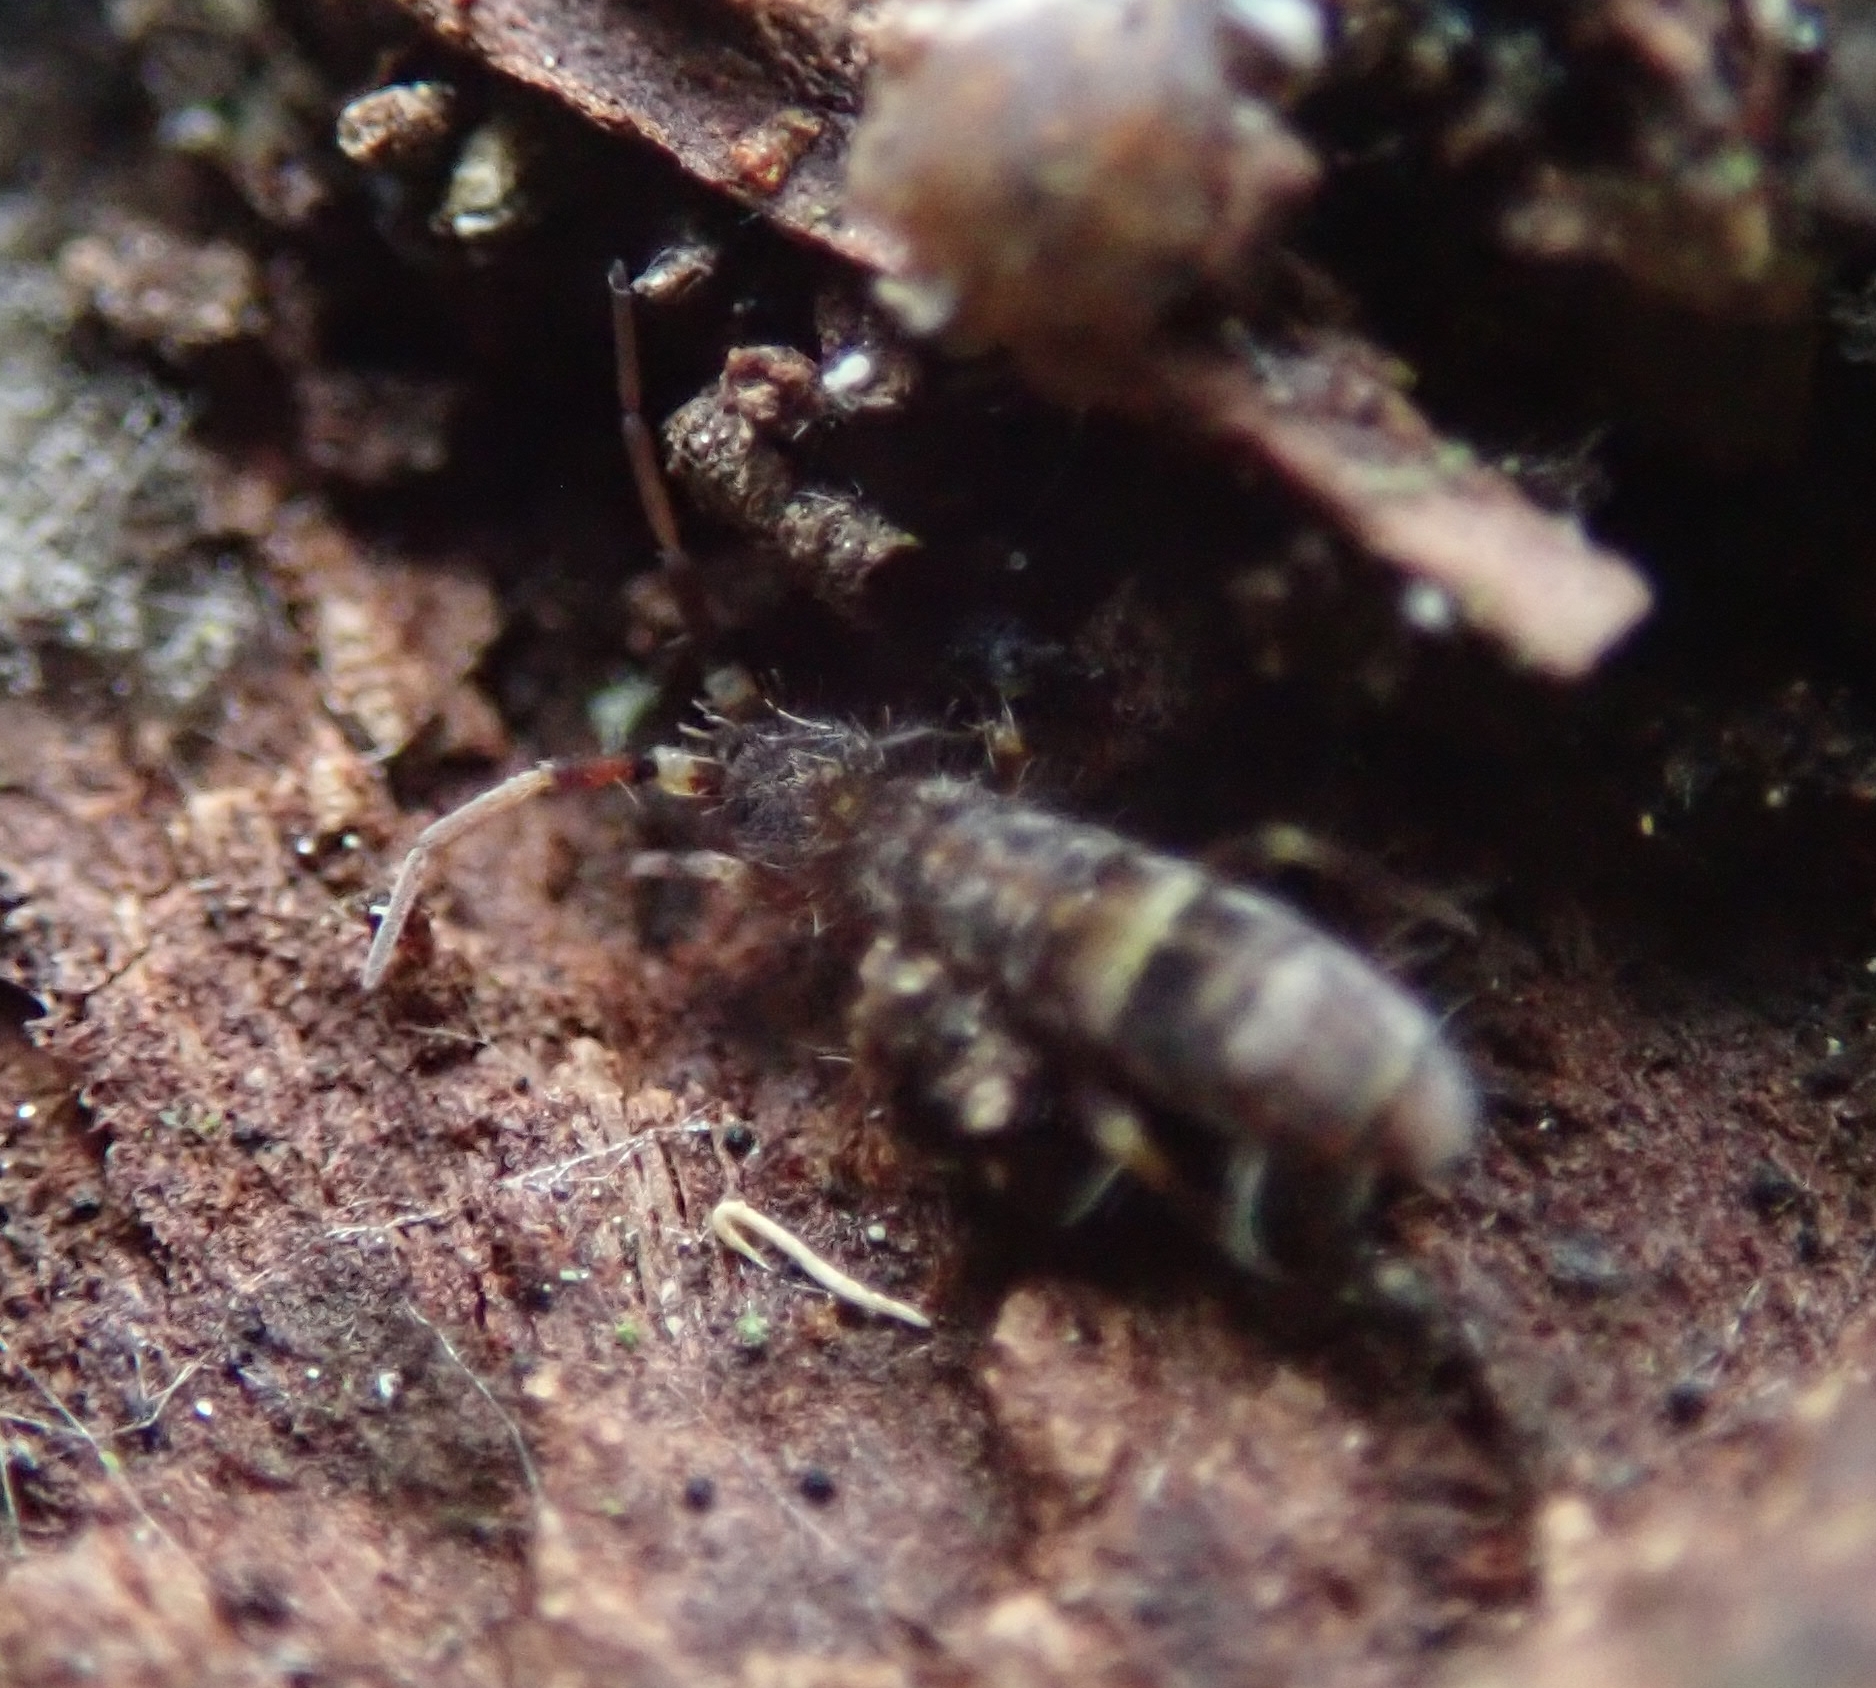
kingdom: Animalia
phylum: Arthropoda
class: Collembola
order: Entomobryomorpha
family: Orchesellidae
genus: Orchesella
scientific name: Orchesella cincta
